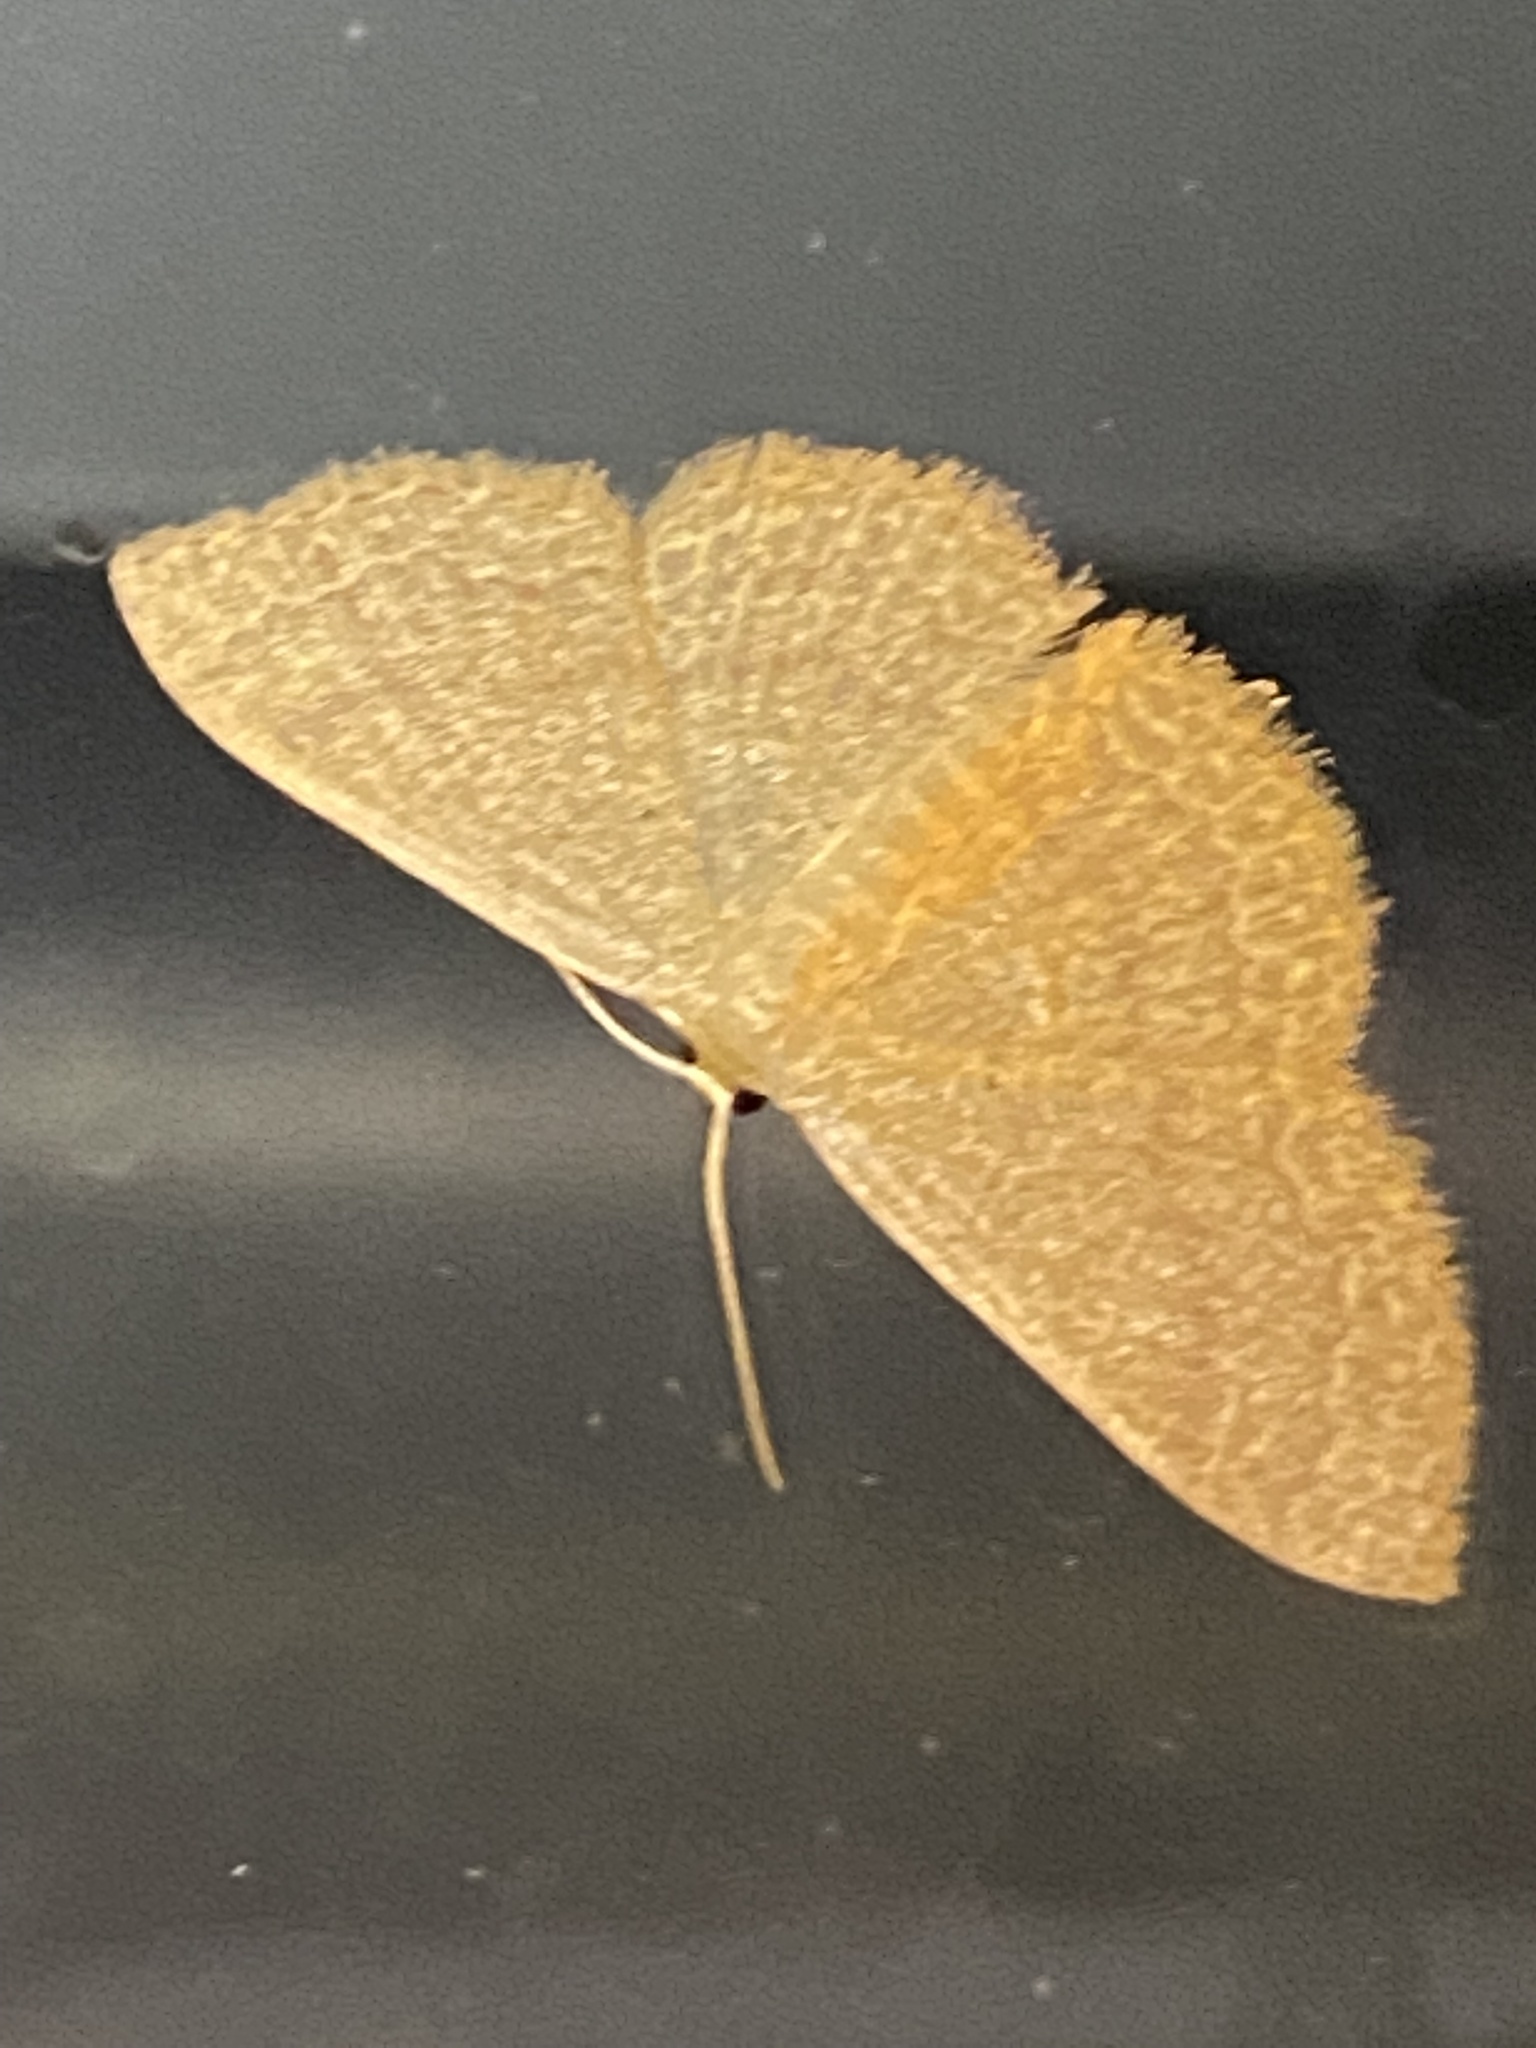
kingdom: Animalia
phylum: Arthropoda
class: Insecta
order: Lepidoptera
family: Geometridae
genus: Pleuroprucha
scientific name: Pleuroprucha insulsaria
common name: Common tan wave
